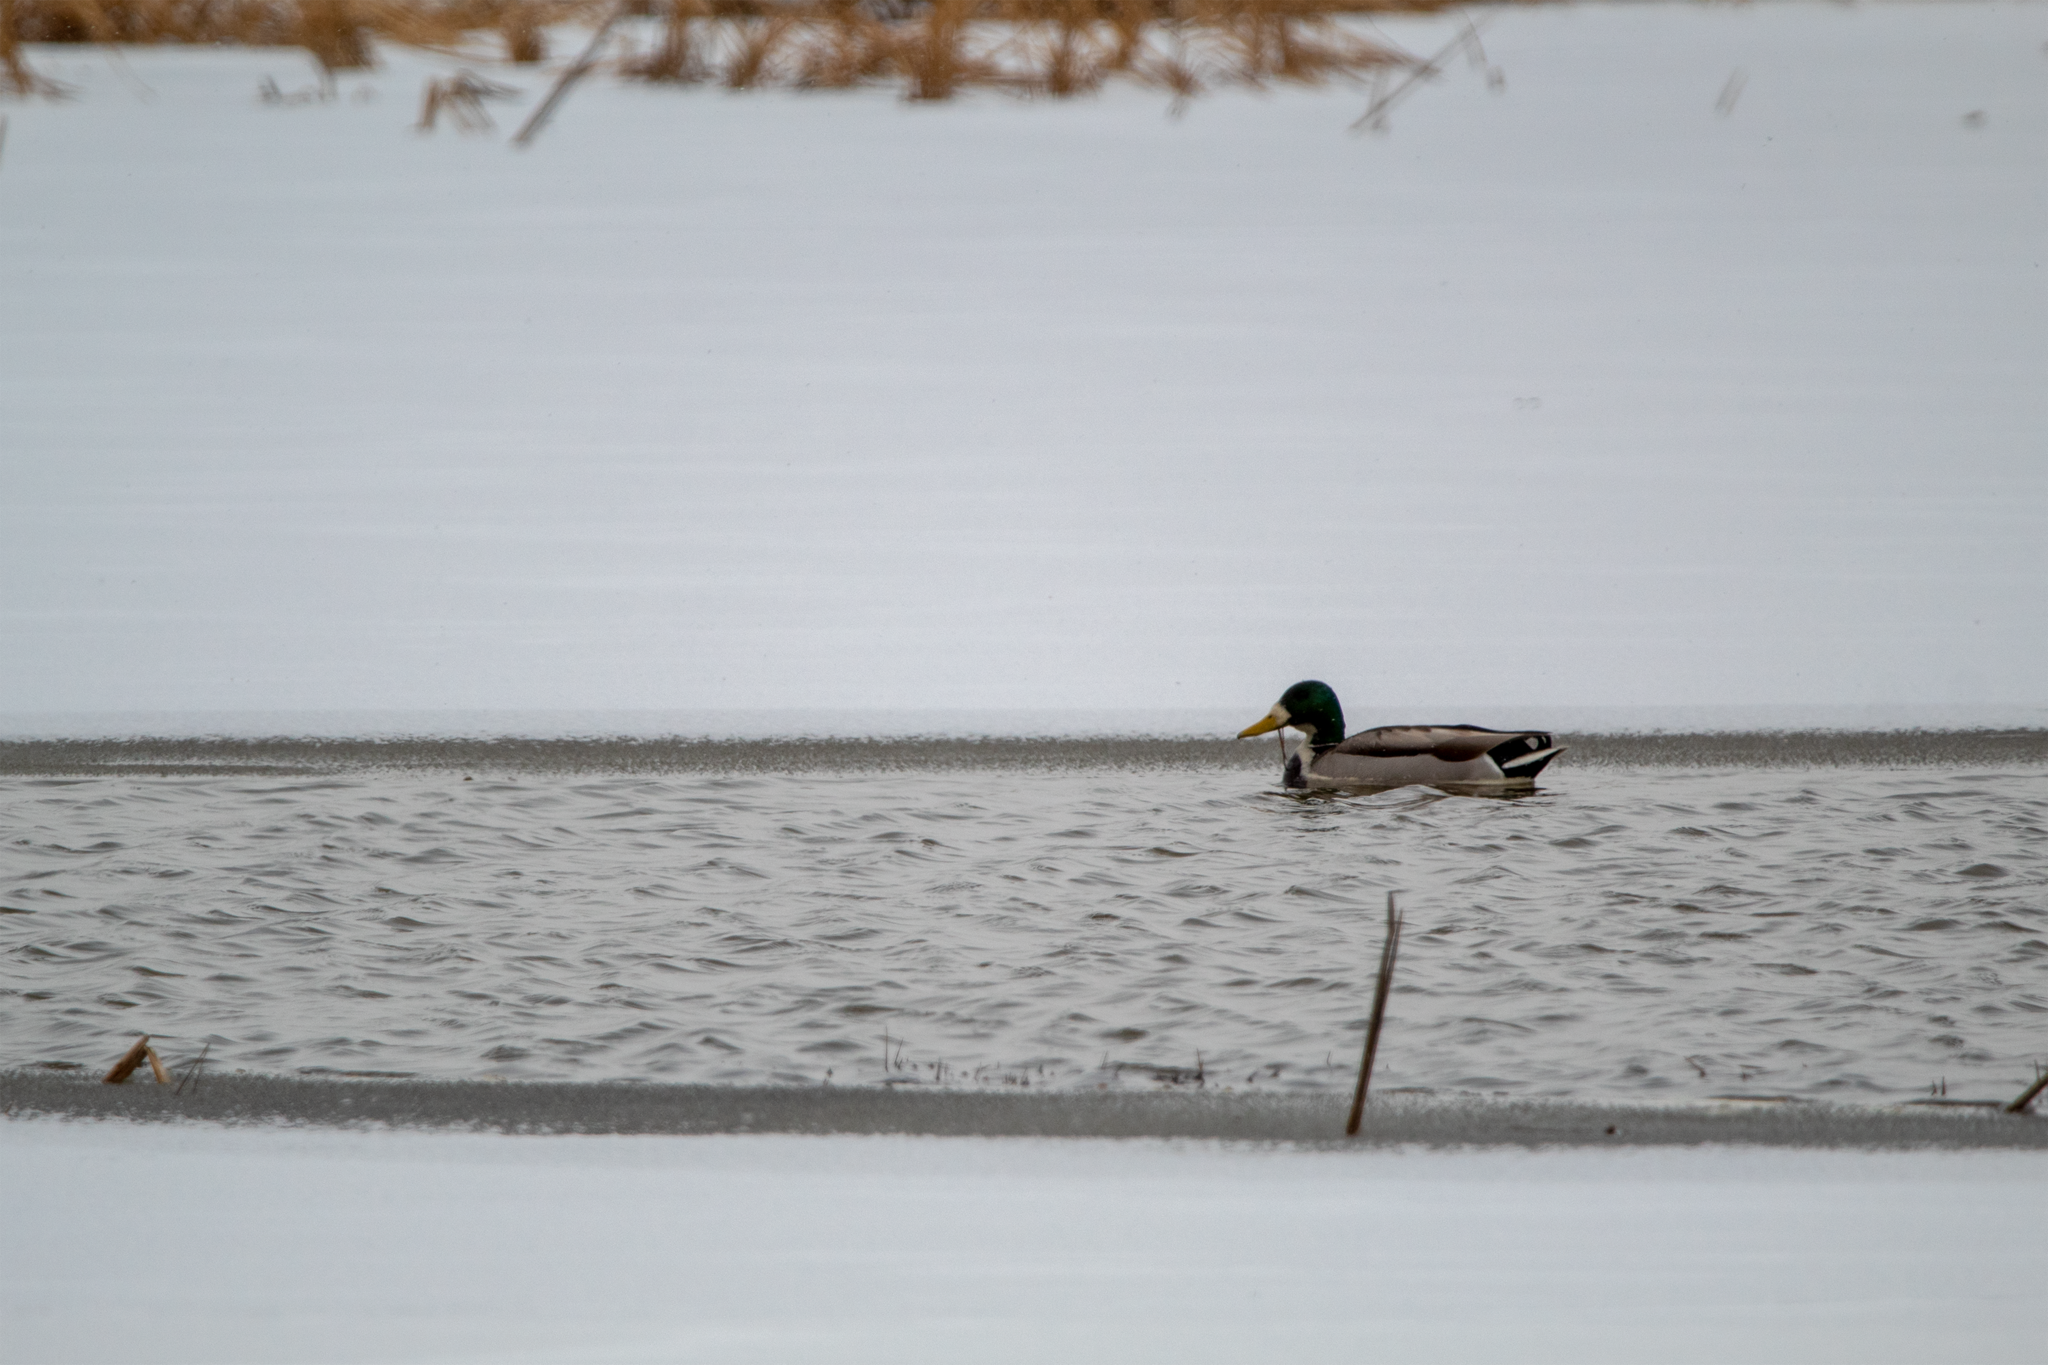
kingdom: Animalia
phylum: Chordata
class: Aves
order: Anseriformes
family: Anatidae
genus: Anas
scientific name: Anas platyrhynchos
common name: Mallard
